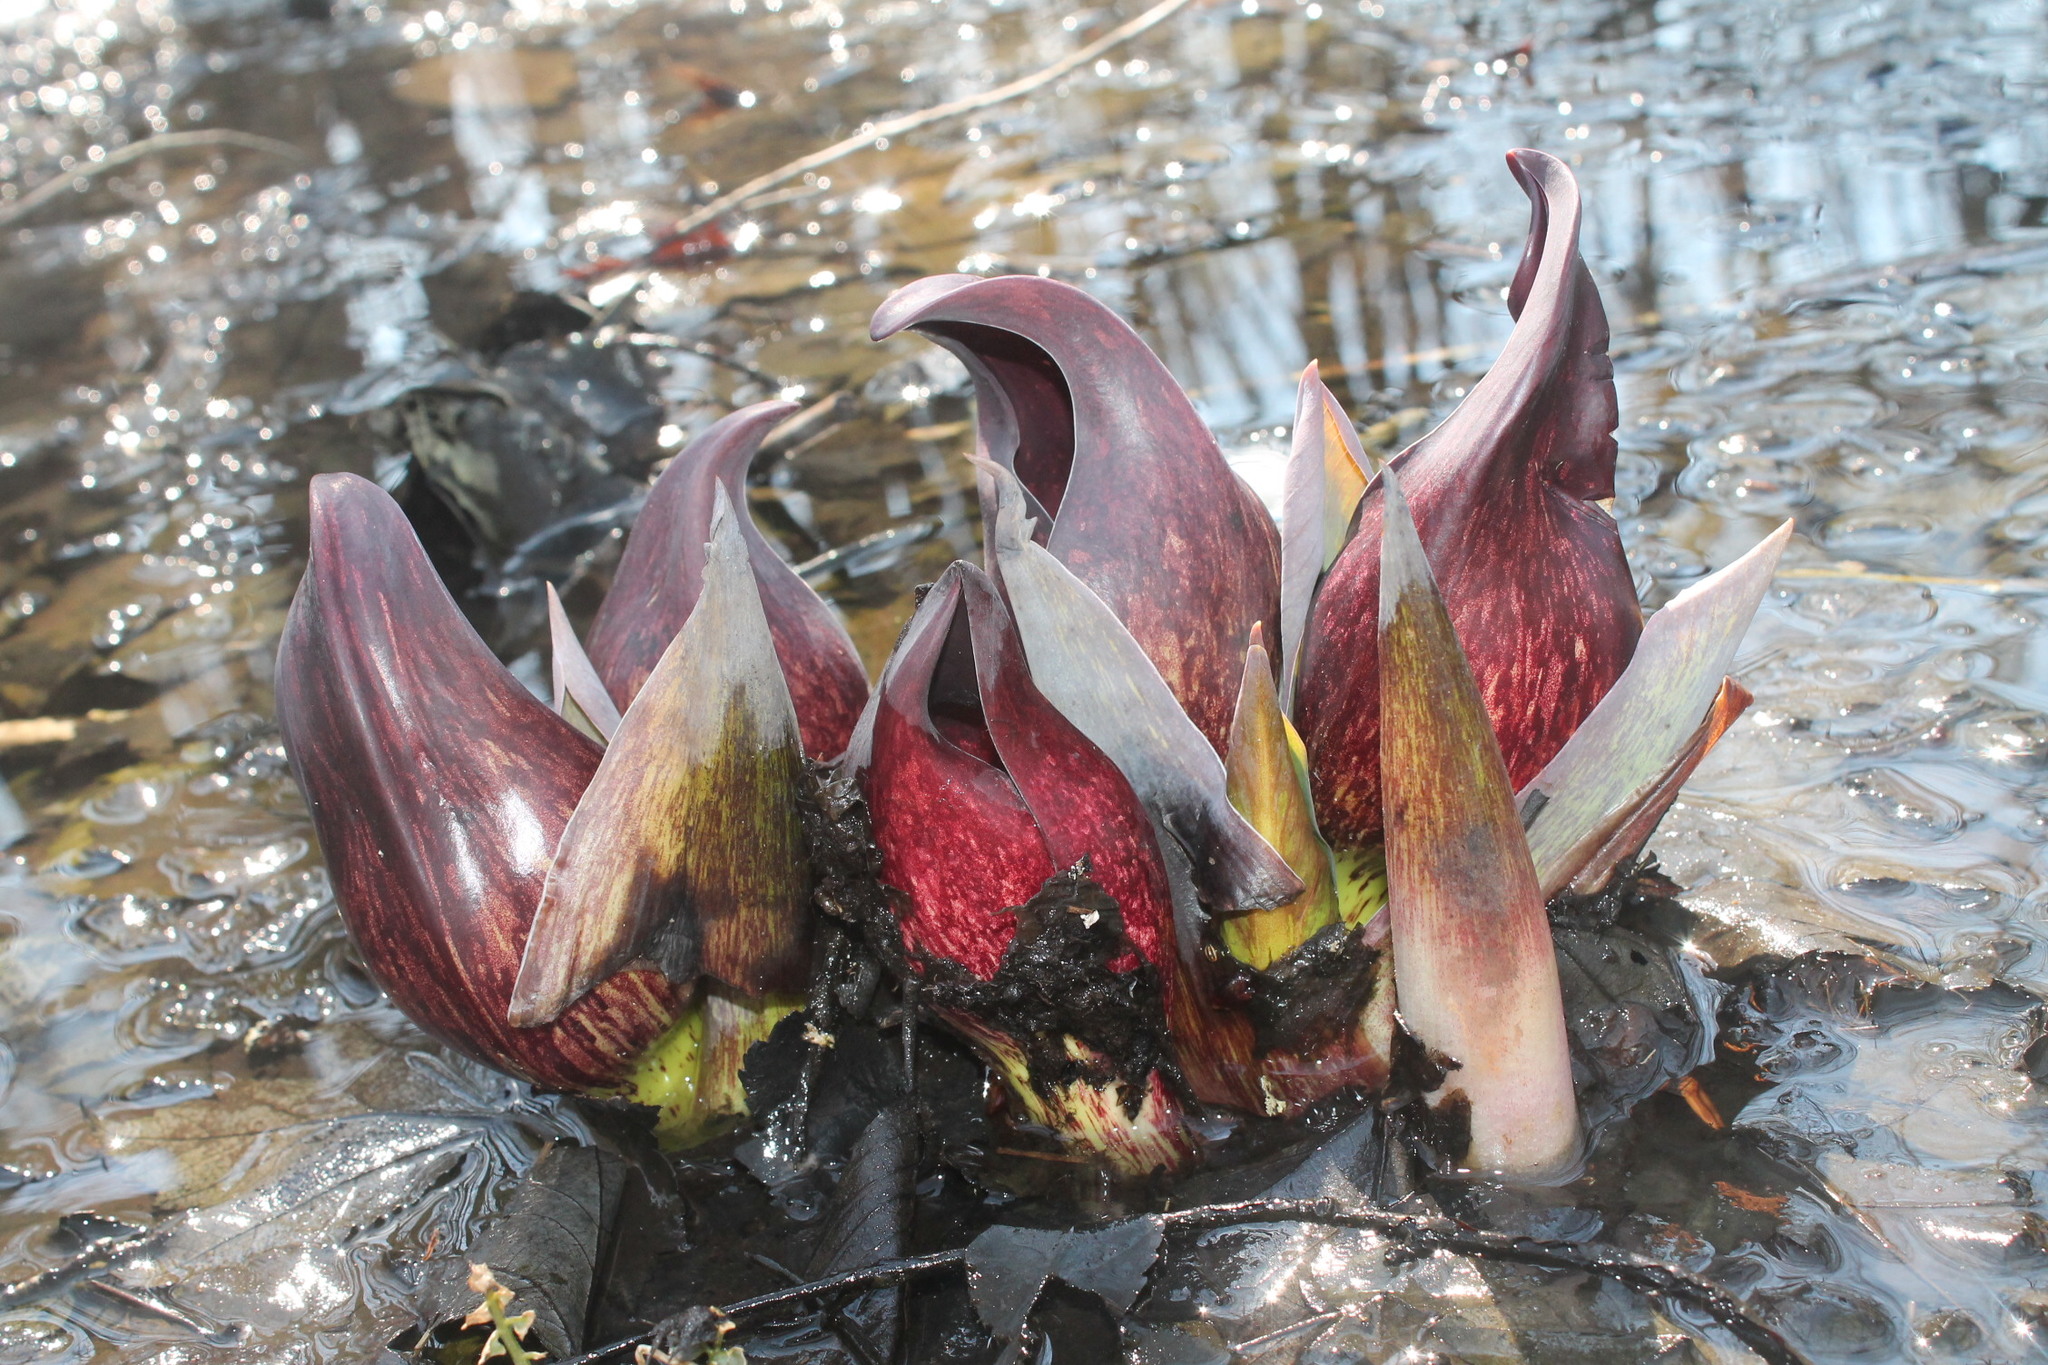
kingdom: Plantae
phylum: Tracheophyta
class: Liliopsida
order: Alismatales
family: Araceae
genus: Symplocarpus
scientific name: Symplocarpus foetidus
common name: Eastern skunk cabbage
